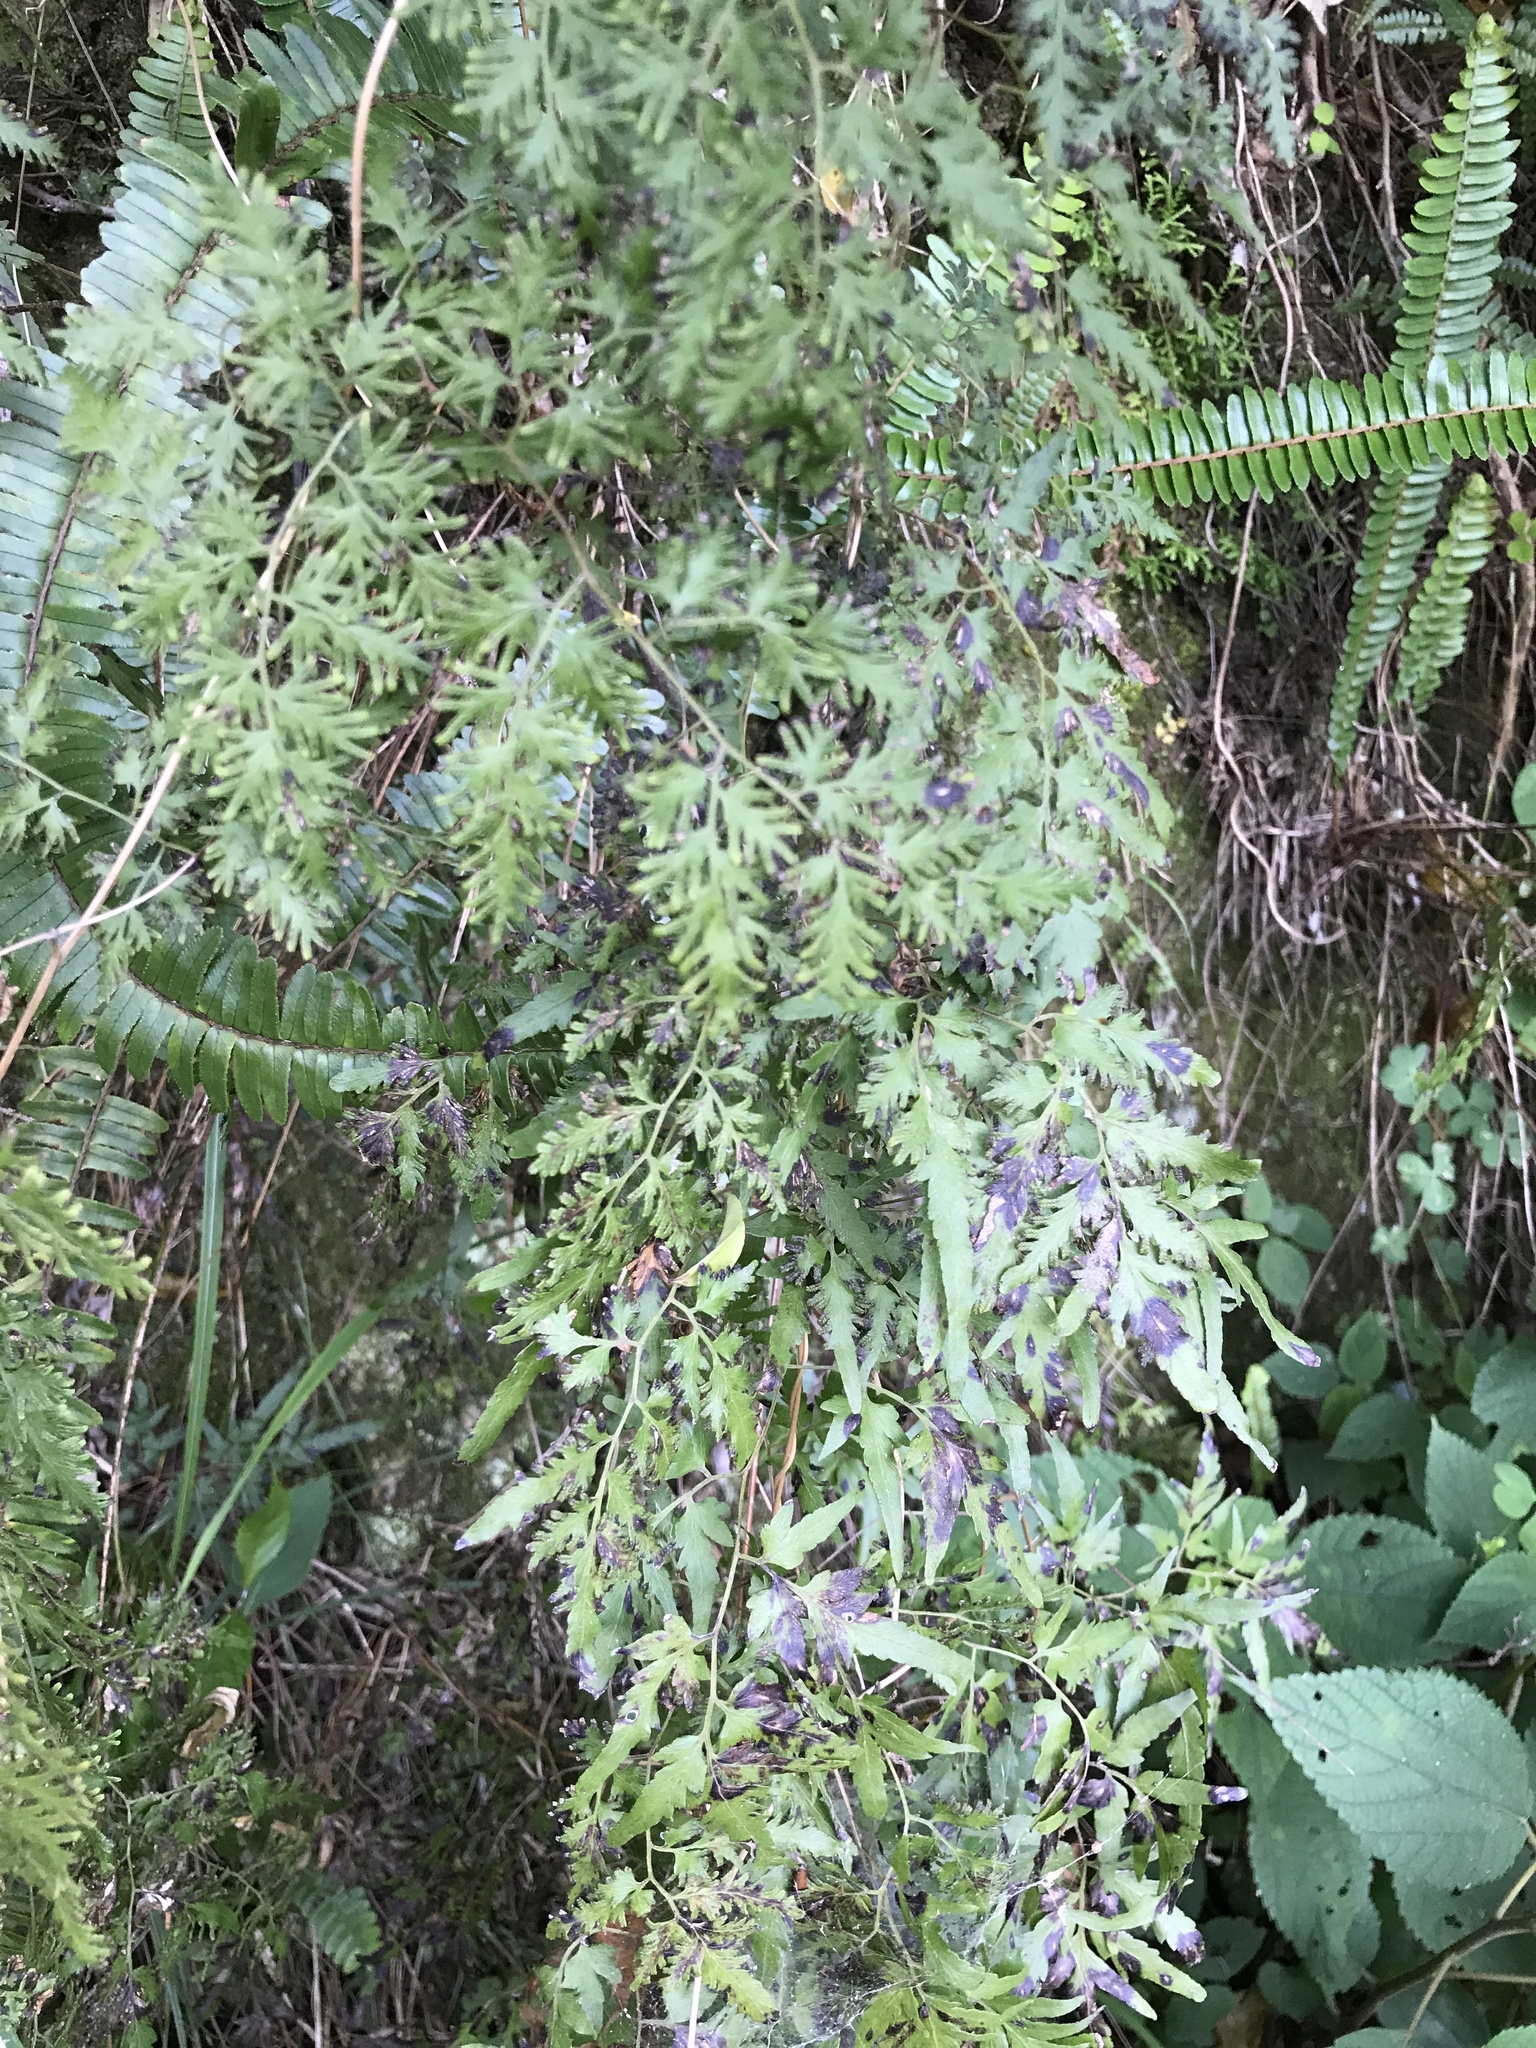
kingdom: Plantae
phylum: Tracheophyta
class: Polypodiopsida
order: Schizaeales
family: Lygodiaceae
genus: Lygodium
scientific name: Lygodium japonicum
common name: Japanese climbing fern
